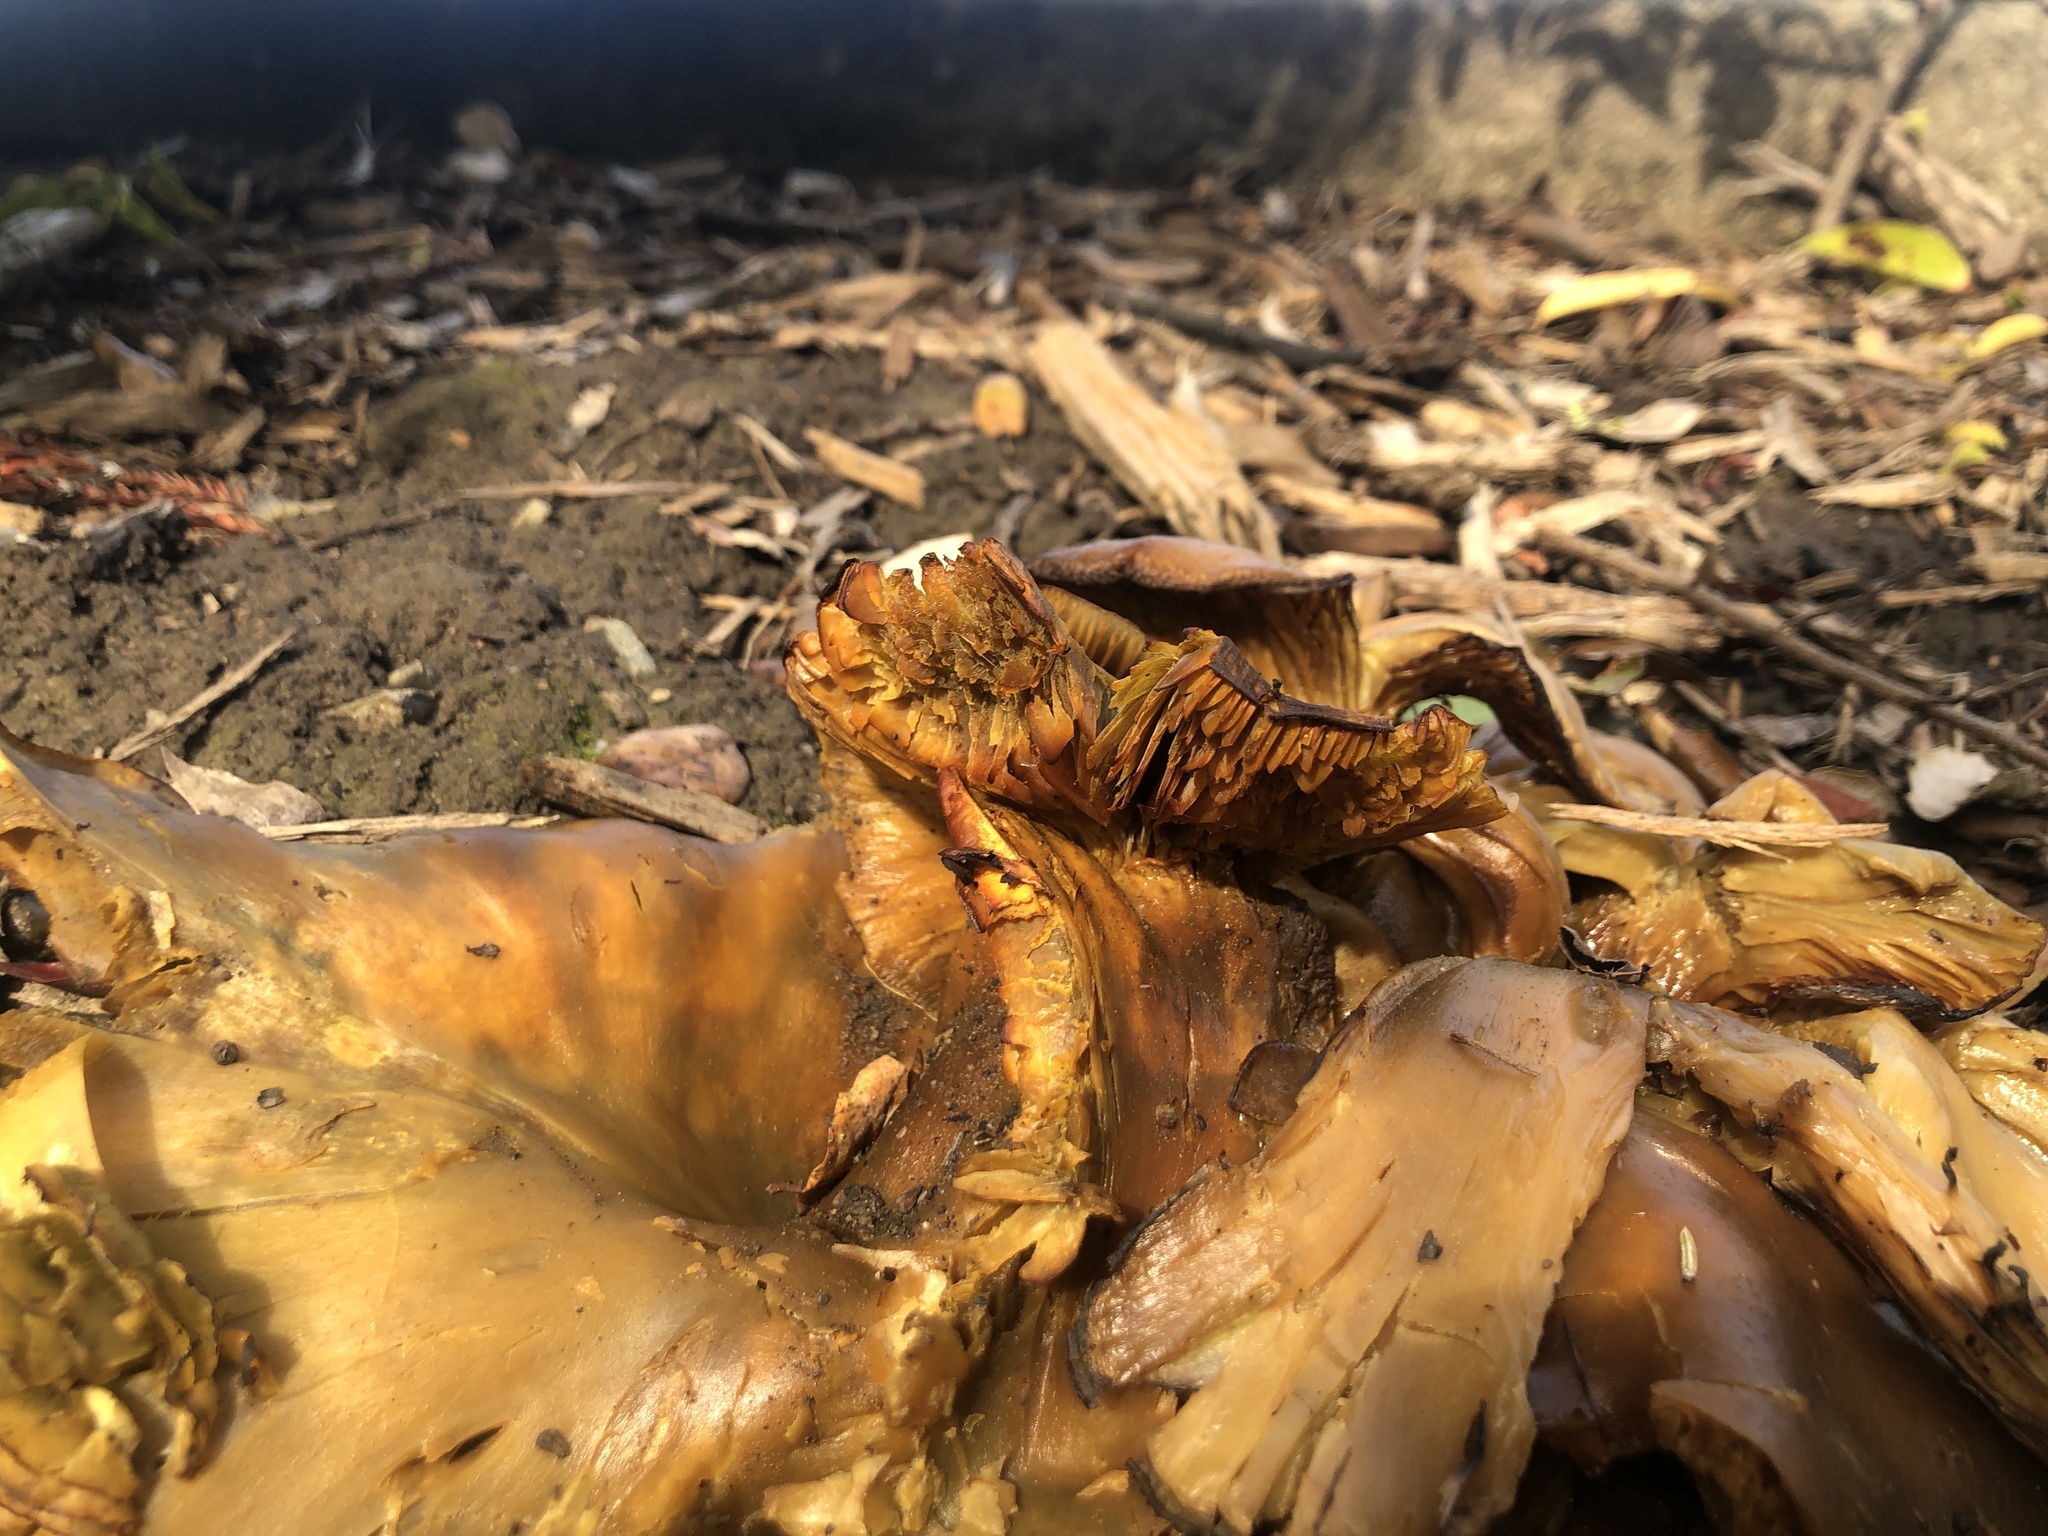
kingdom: Fungi
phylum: Basidiomycota
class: Agaricomycetes
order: Agaricales
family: Omphalotaceae
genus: Omphalotus
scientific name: Omphalotus olivascens
